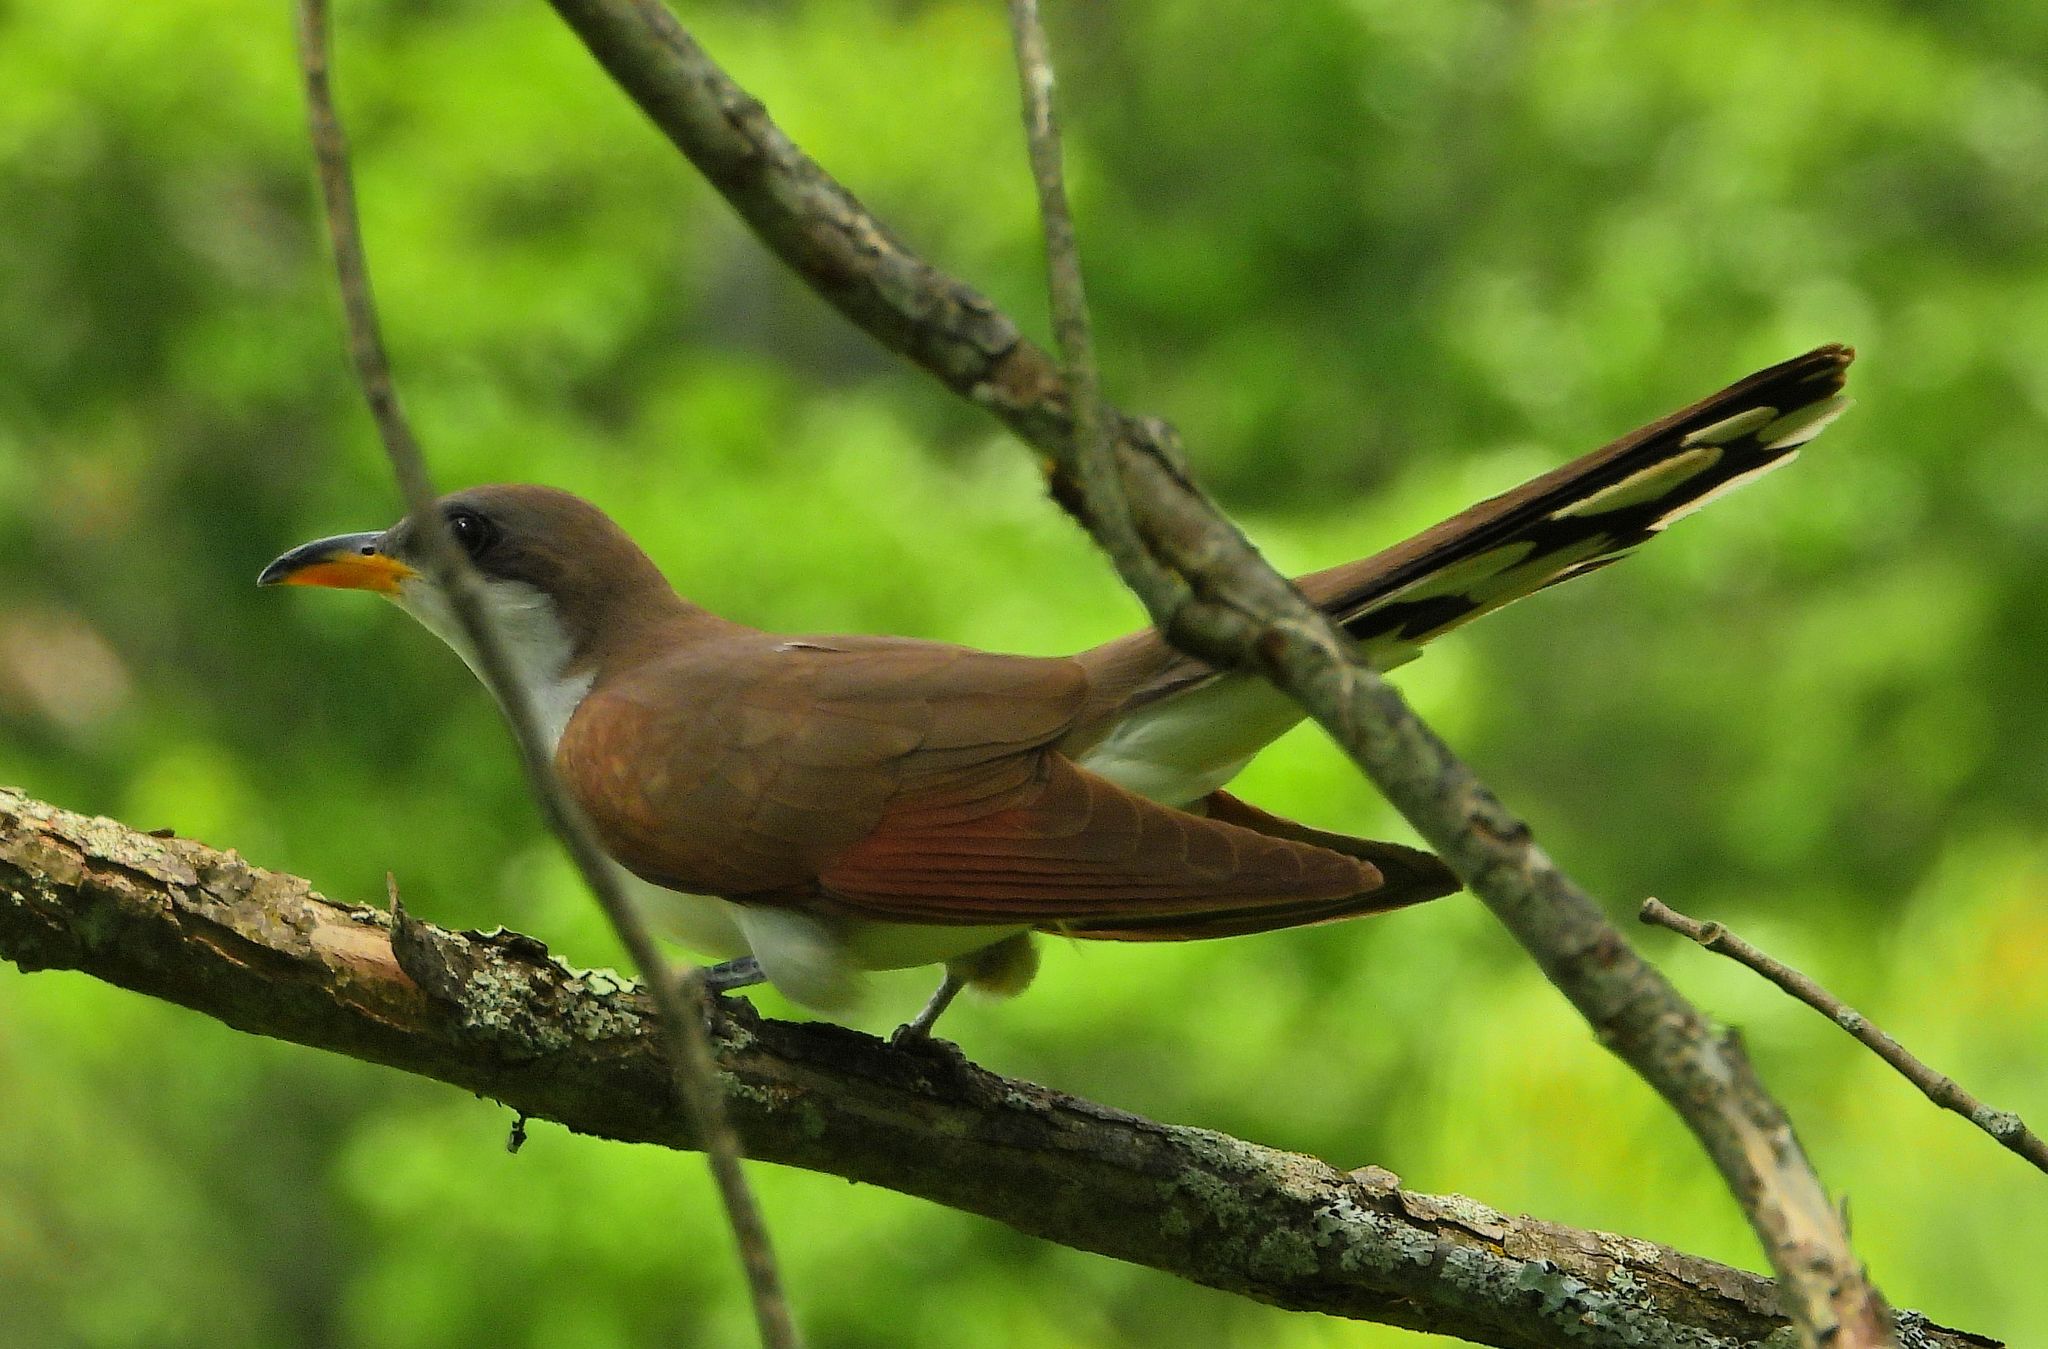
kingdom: Animalia
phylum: Chordata
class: Aves
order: Cuculiformes
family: Cuculidae
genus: Coccyzus
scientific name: Coccyzus americanus
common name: Yellow-billed cuckoo
